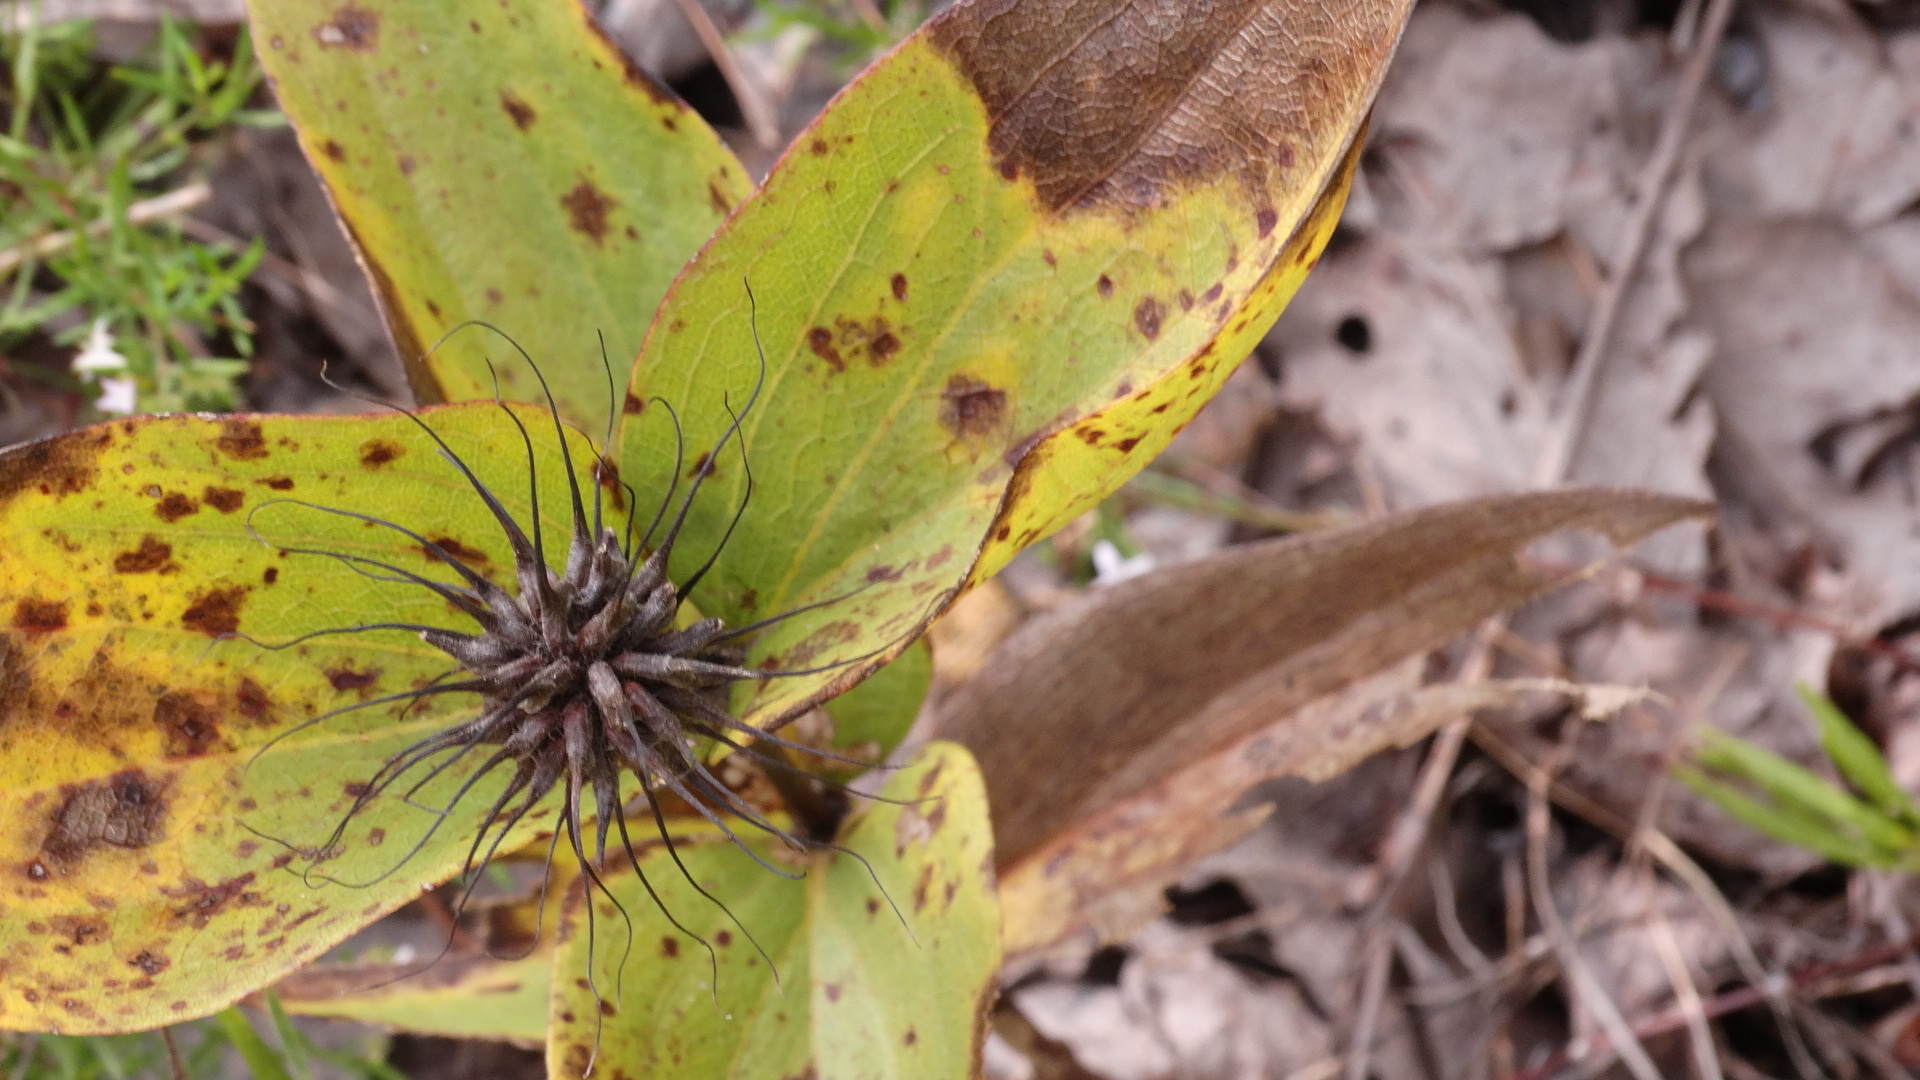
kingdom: Plantae
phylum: Tracheophyta
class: Magnoliopsida
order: Ranunculales
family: Ranunculaceae
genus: Clematis
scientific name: Clematis fremontii
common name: Fremont's clematis
